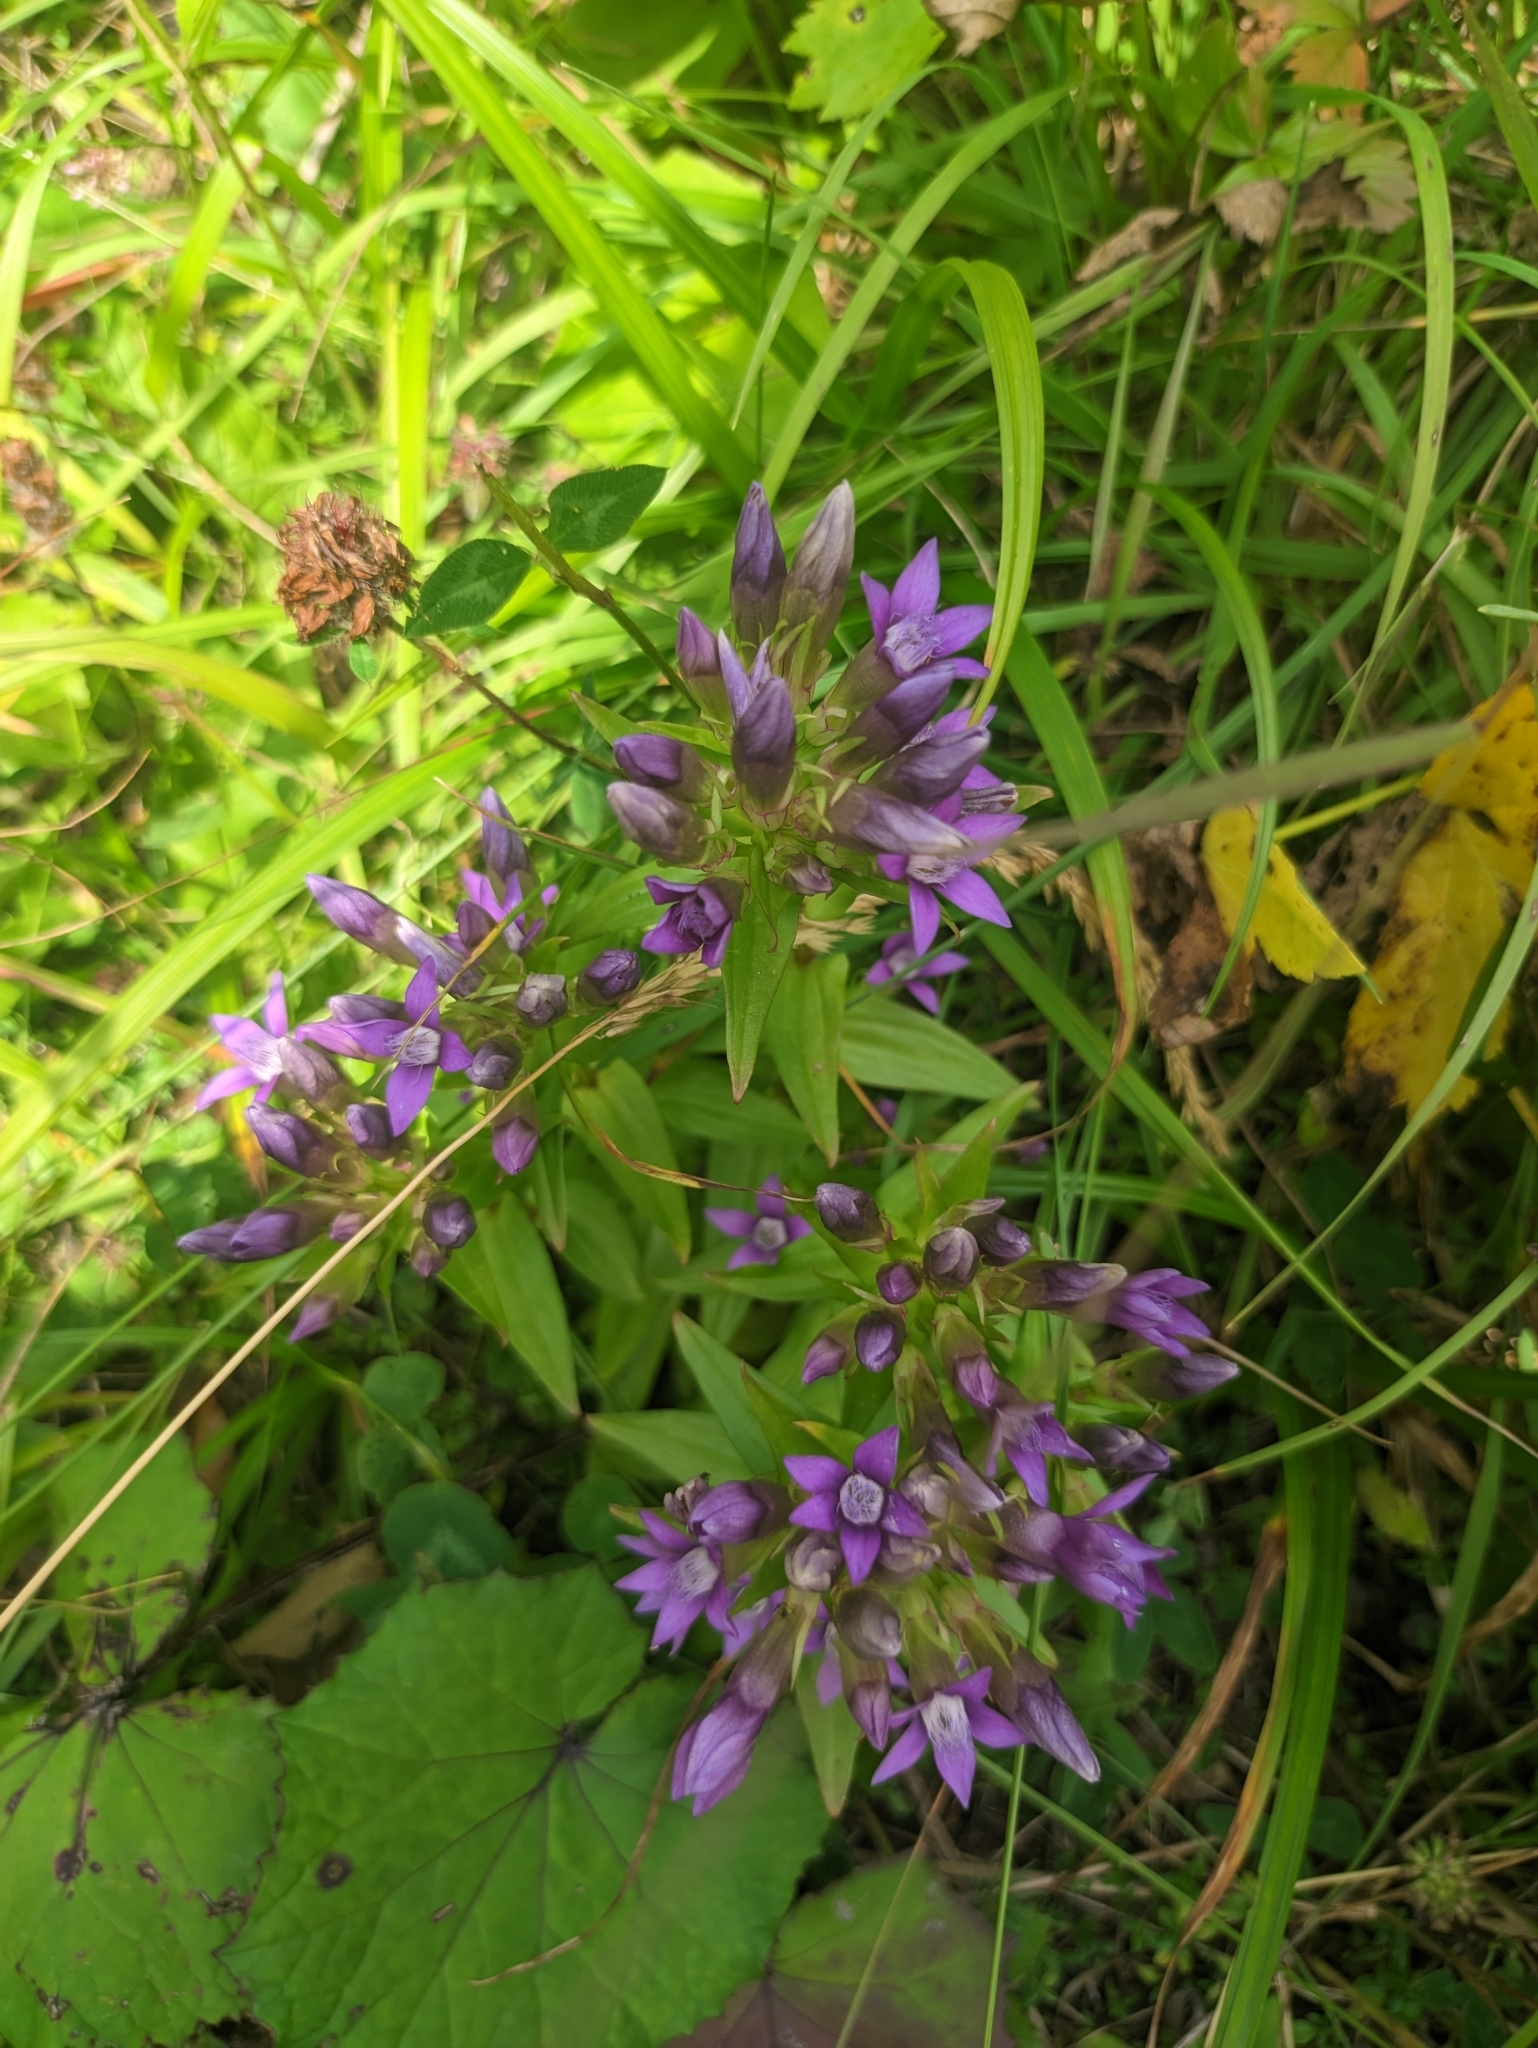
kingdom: Plantae
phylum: Tracheophyta
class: Magnoliopsida
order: Gentianales
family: Gentianaceae
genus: Gentianella
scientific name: Gentianella amarella
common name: Autumn gentian
